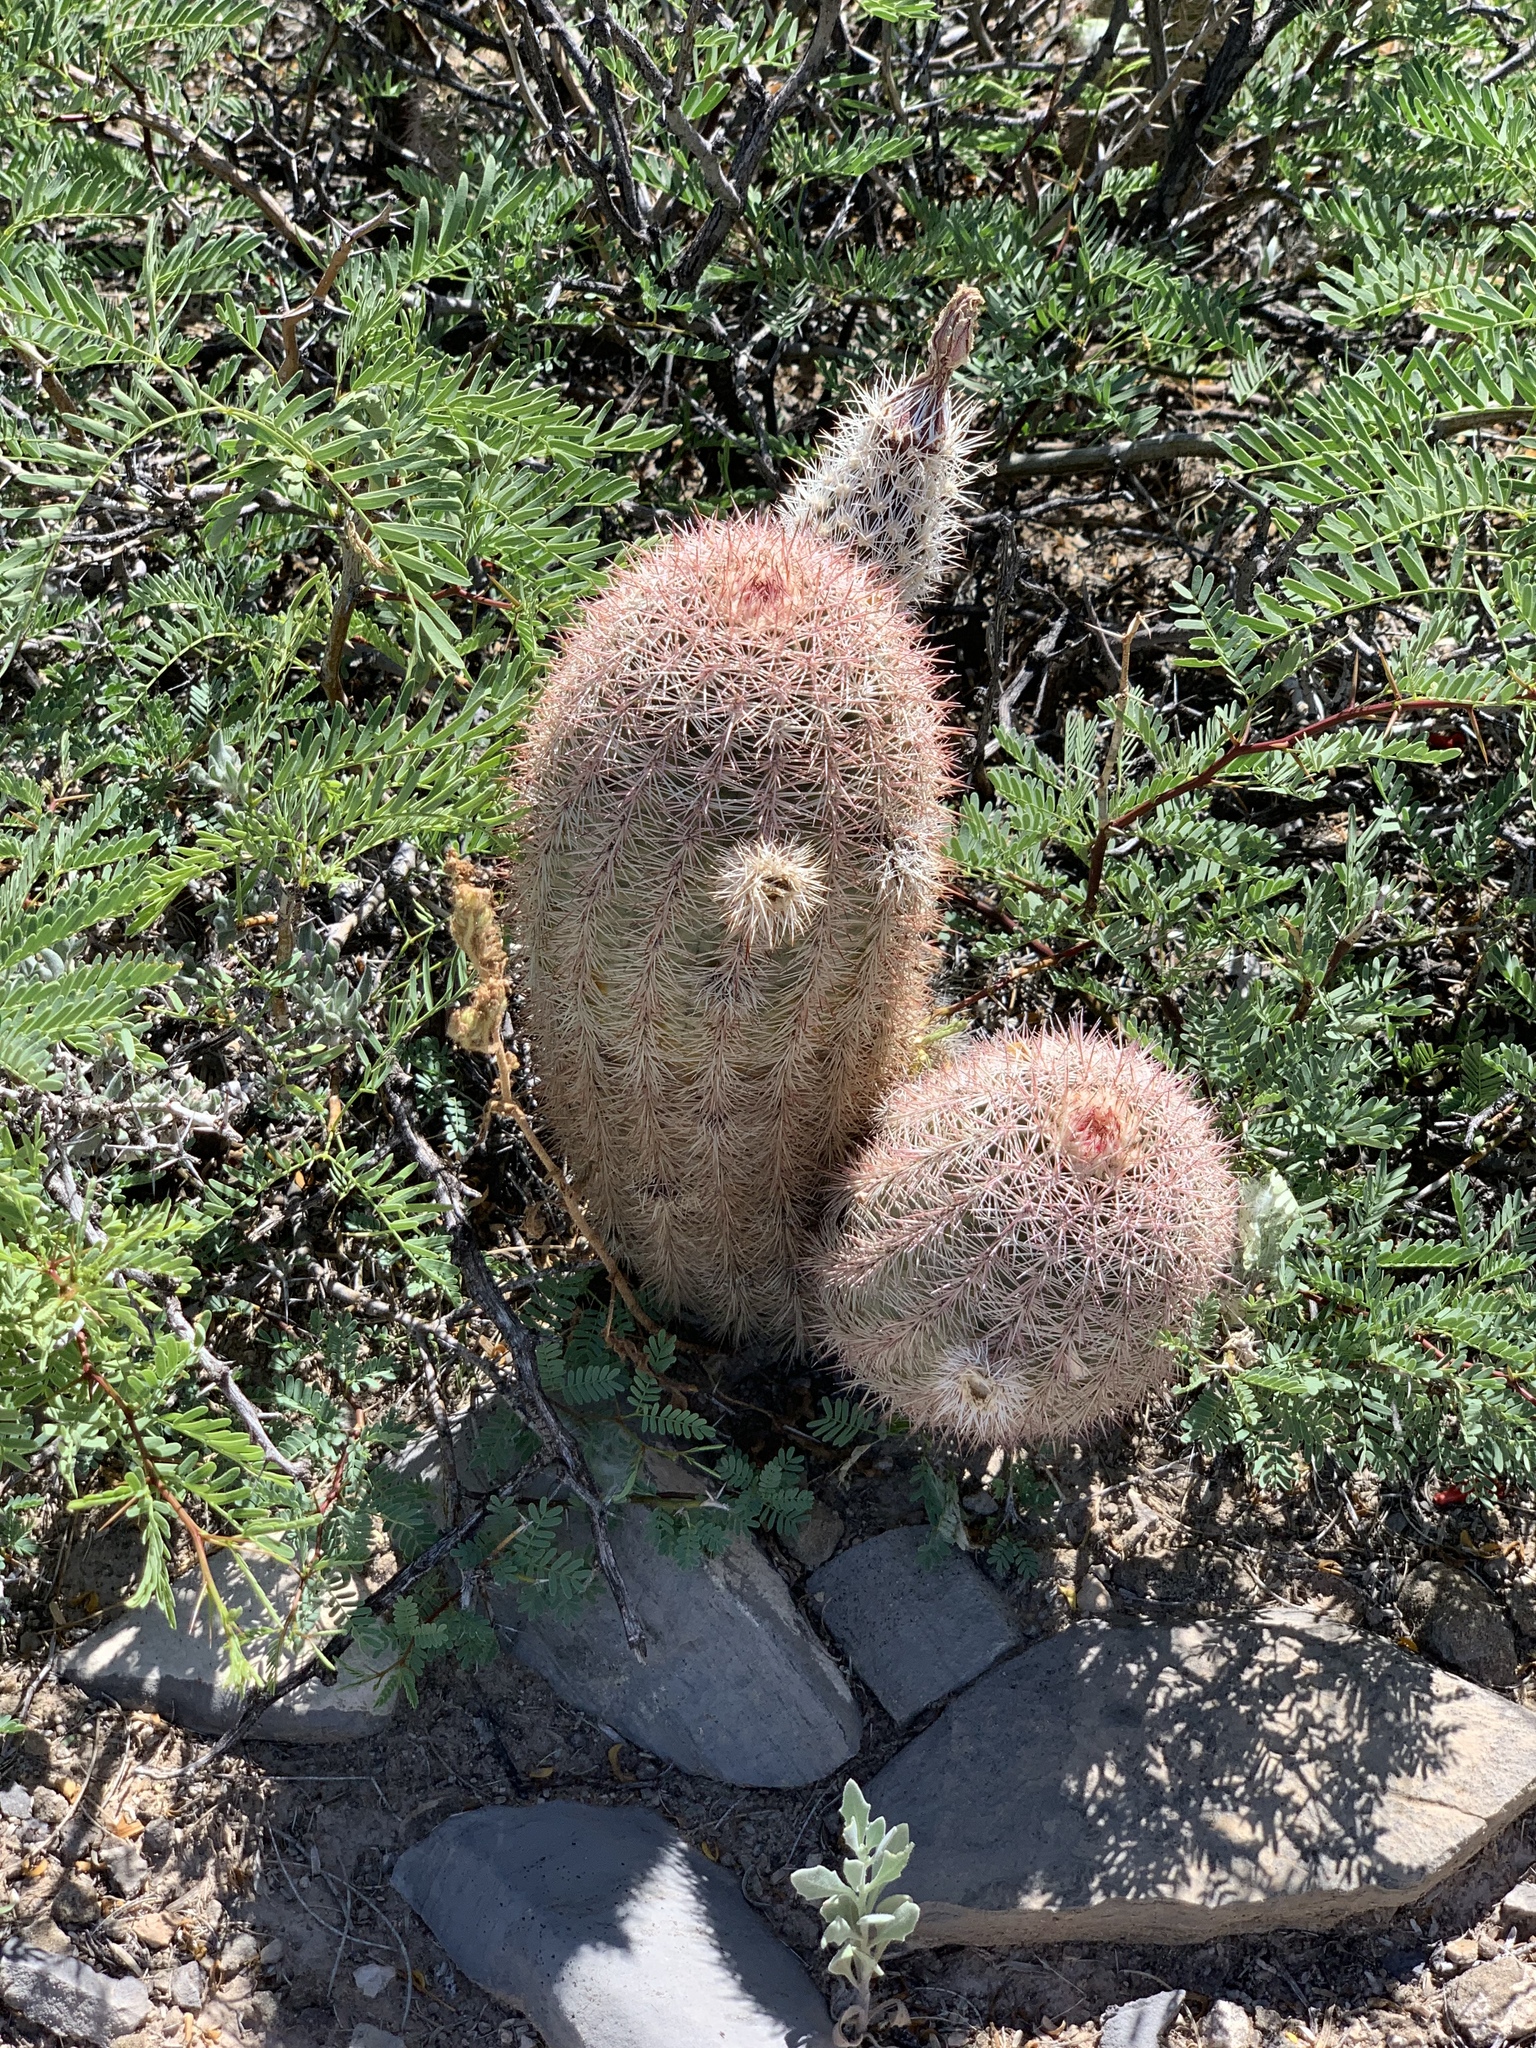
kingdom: Plantae
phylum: Tracheophyta
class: Magnoliopsida
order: Caryophyllales
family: Cactaceae
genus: Echinocereus
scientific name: Echinocereus dasyacanthus
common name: Spiny hedgehog cactus
